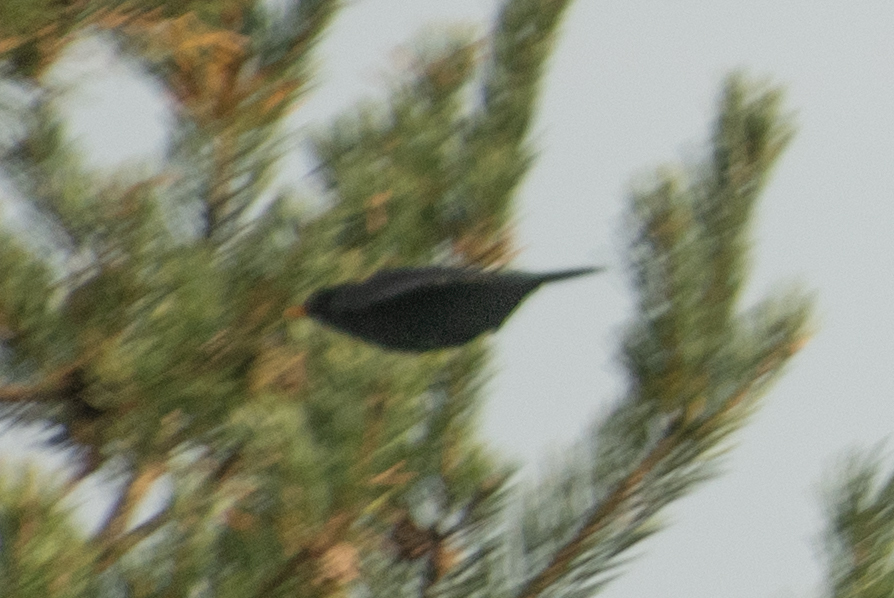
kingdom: Animalia
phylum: Chordata
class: Aves
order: Passeriformes
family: Turdidae
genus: Turdus
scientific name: Turdus merula
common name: Common blackbird
